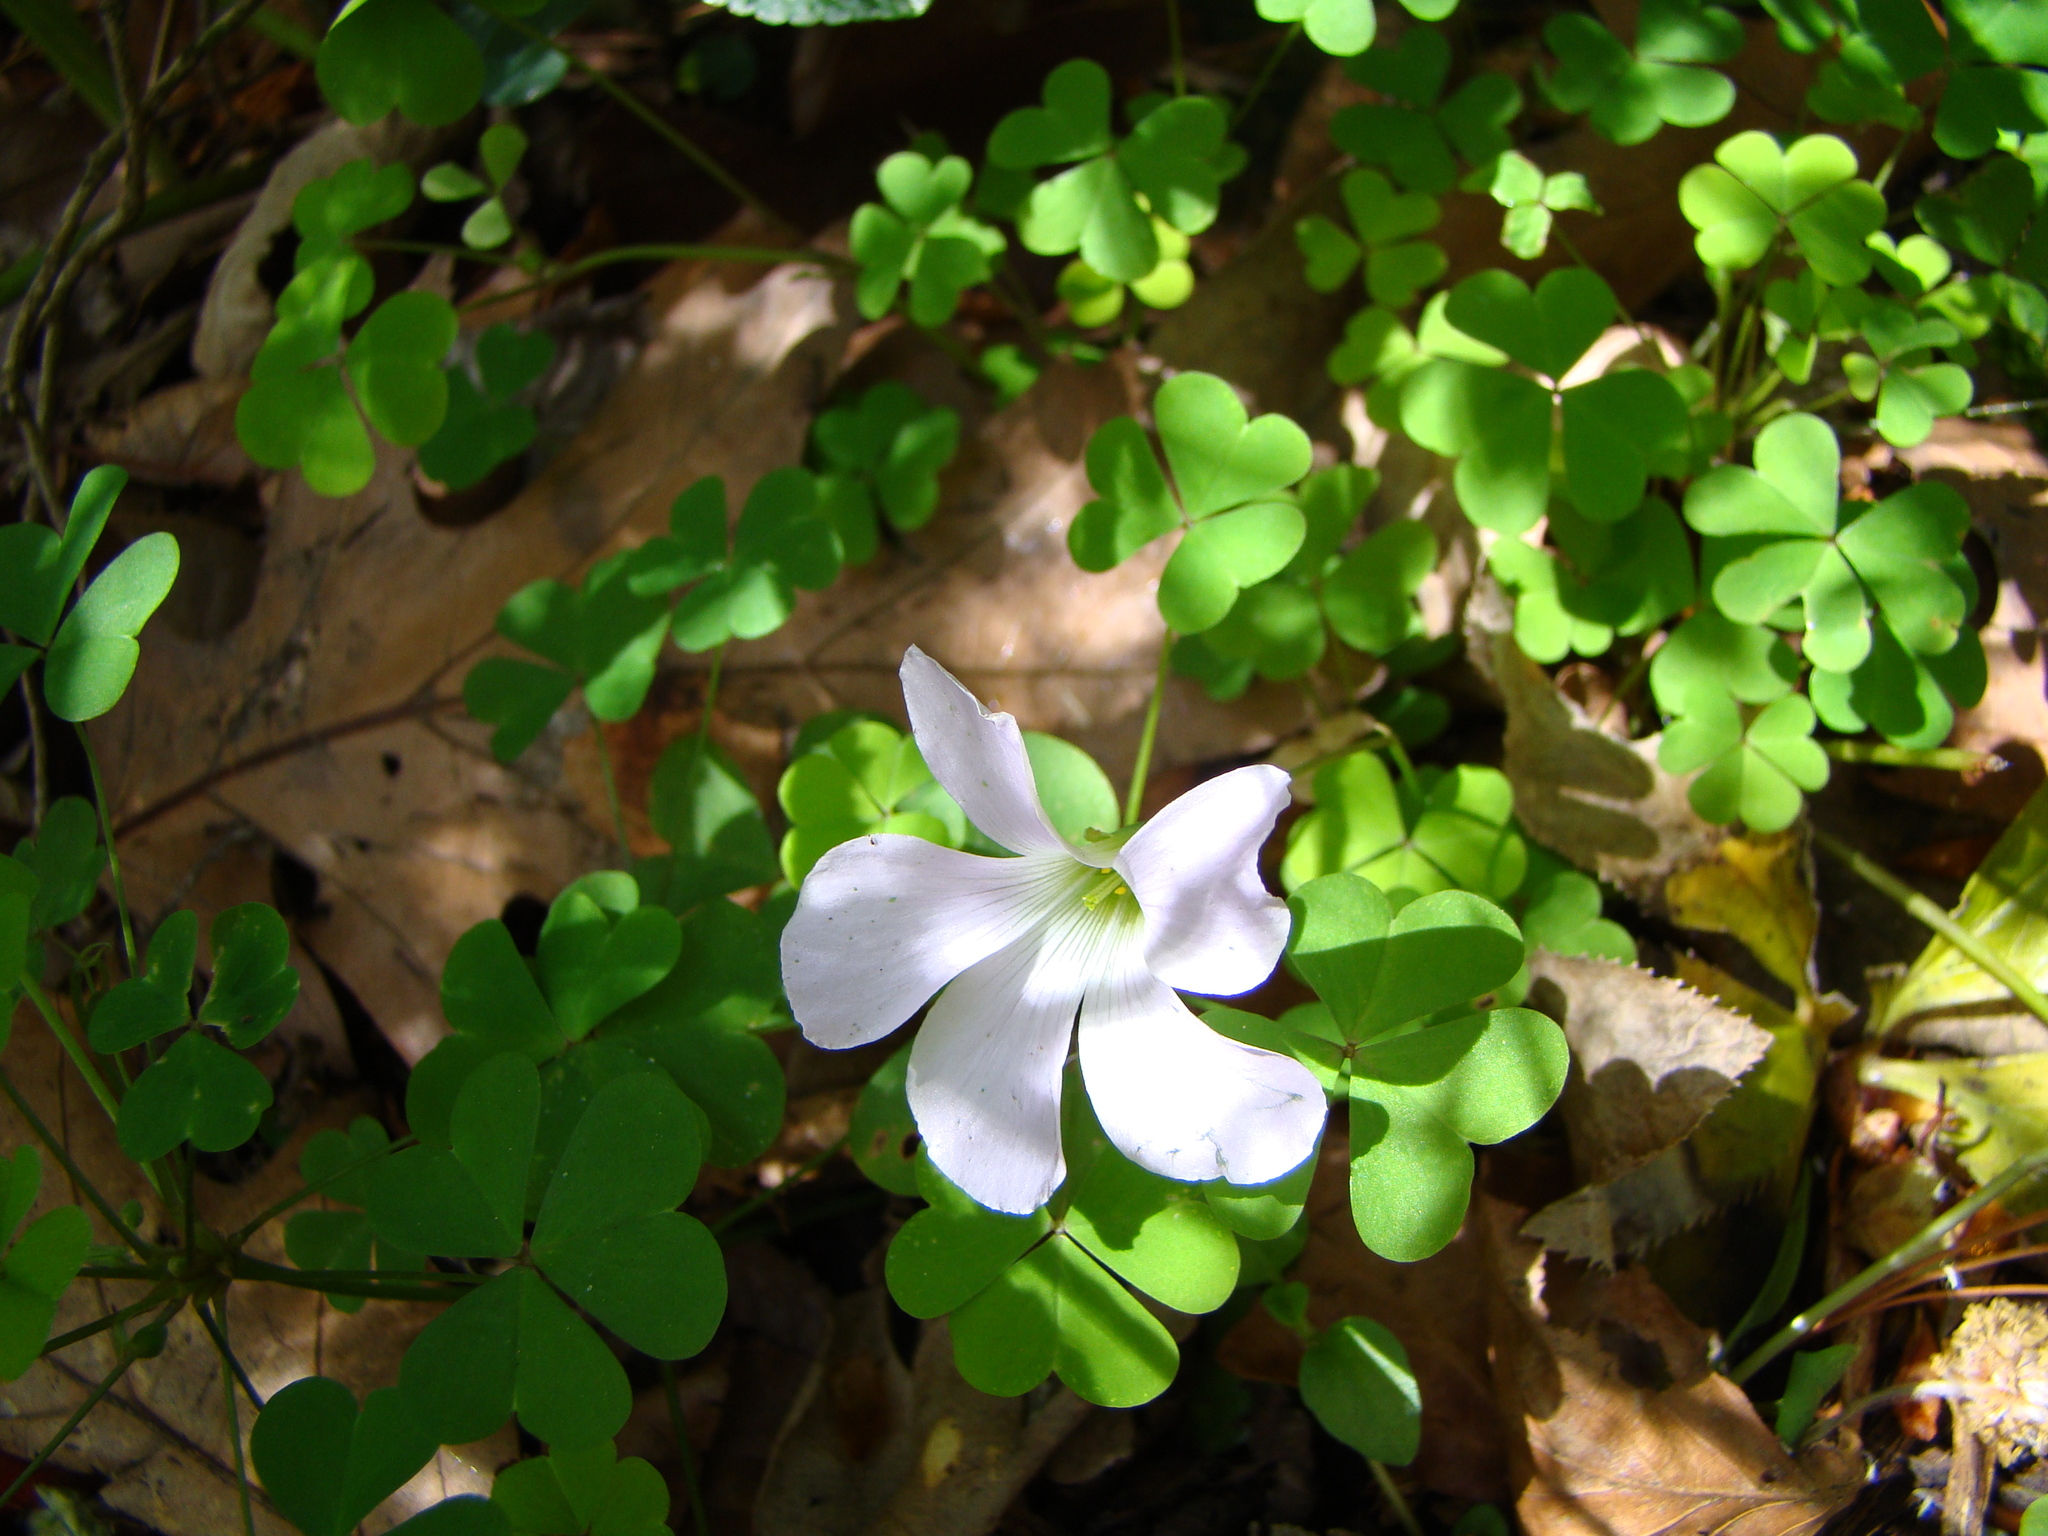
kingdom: Plantae
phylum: Tracheophyta
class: Magnoliopsida
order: Oxalidales
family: Oxalidaceae
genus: Oxalis
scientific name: Oxalis incarnata
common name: Pale pink-sorrel
